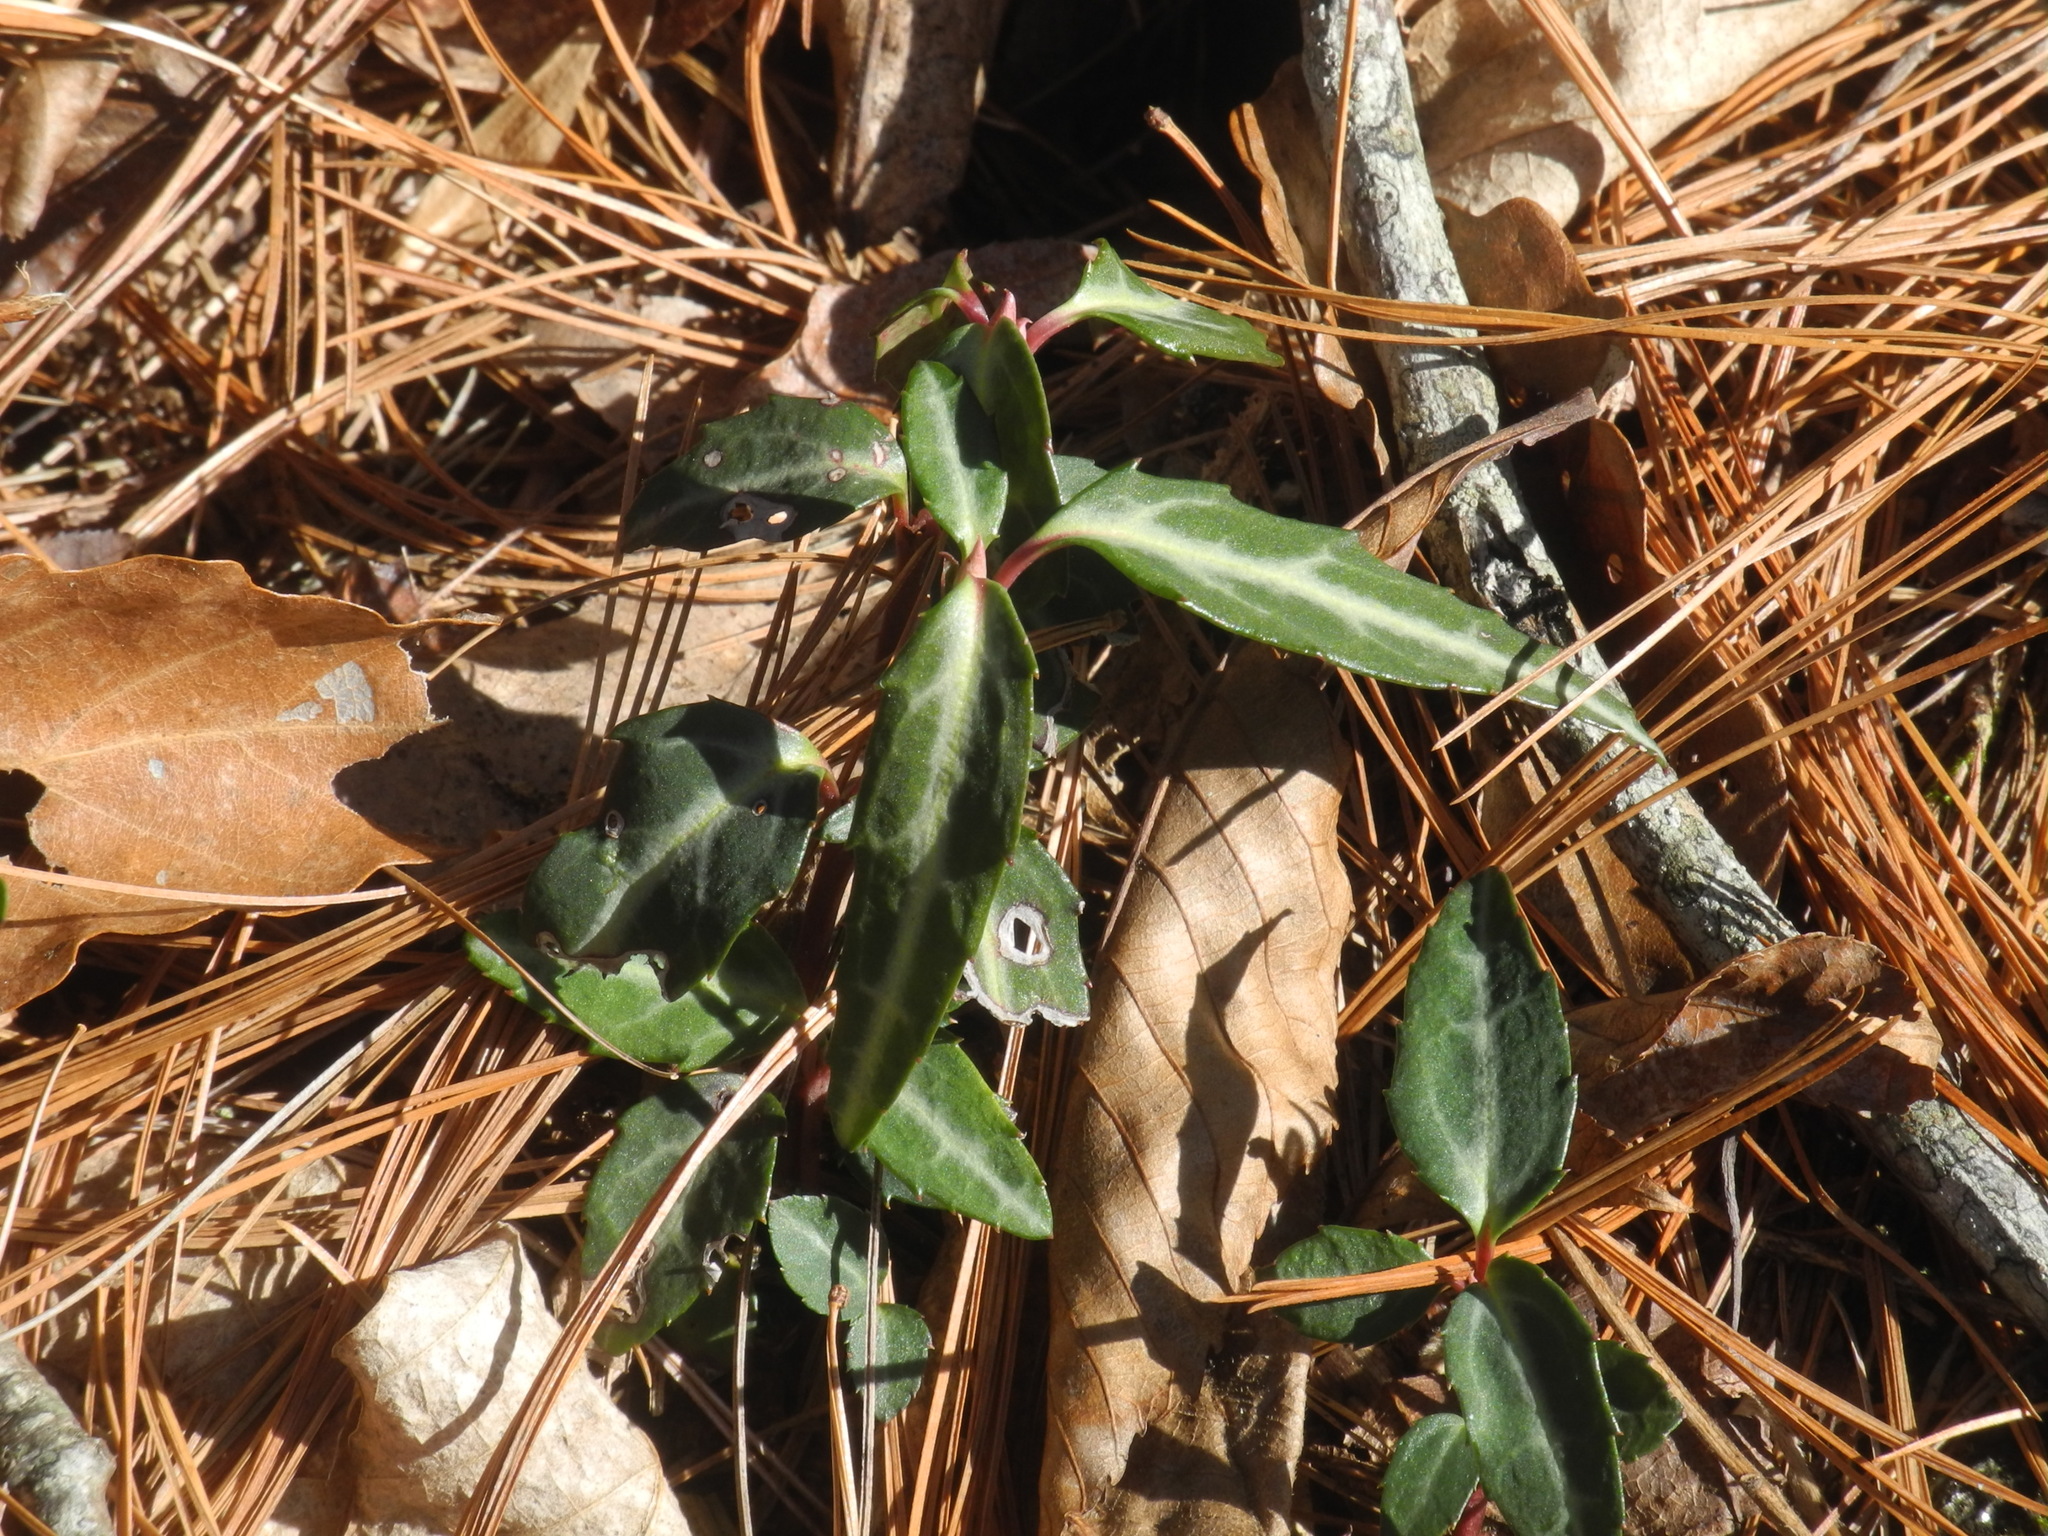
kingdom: Plantae
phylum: Tracheophyta
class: Magnoliopsida
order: Ericales
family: Ericaceae
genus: Chimaphila
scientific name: Chimaphila maculata
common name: Spotted pipsissewa
